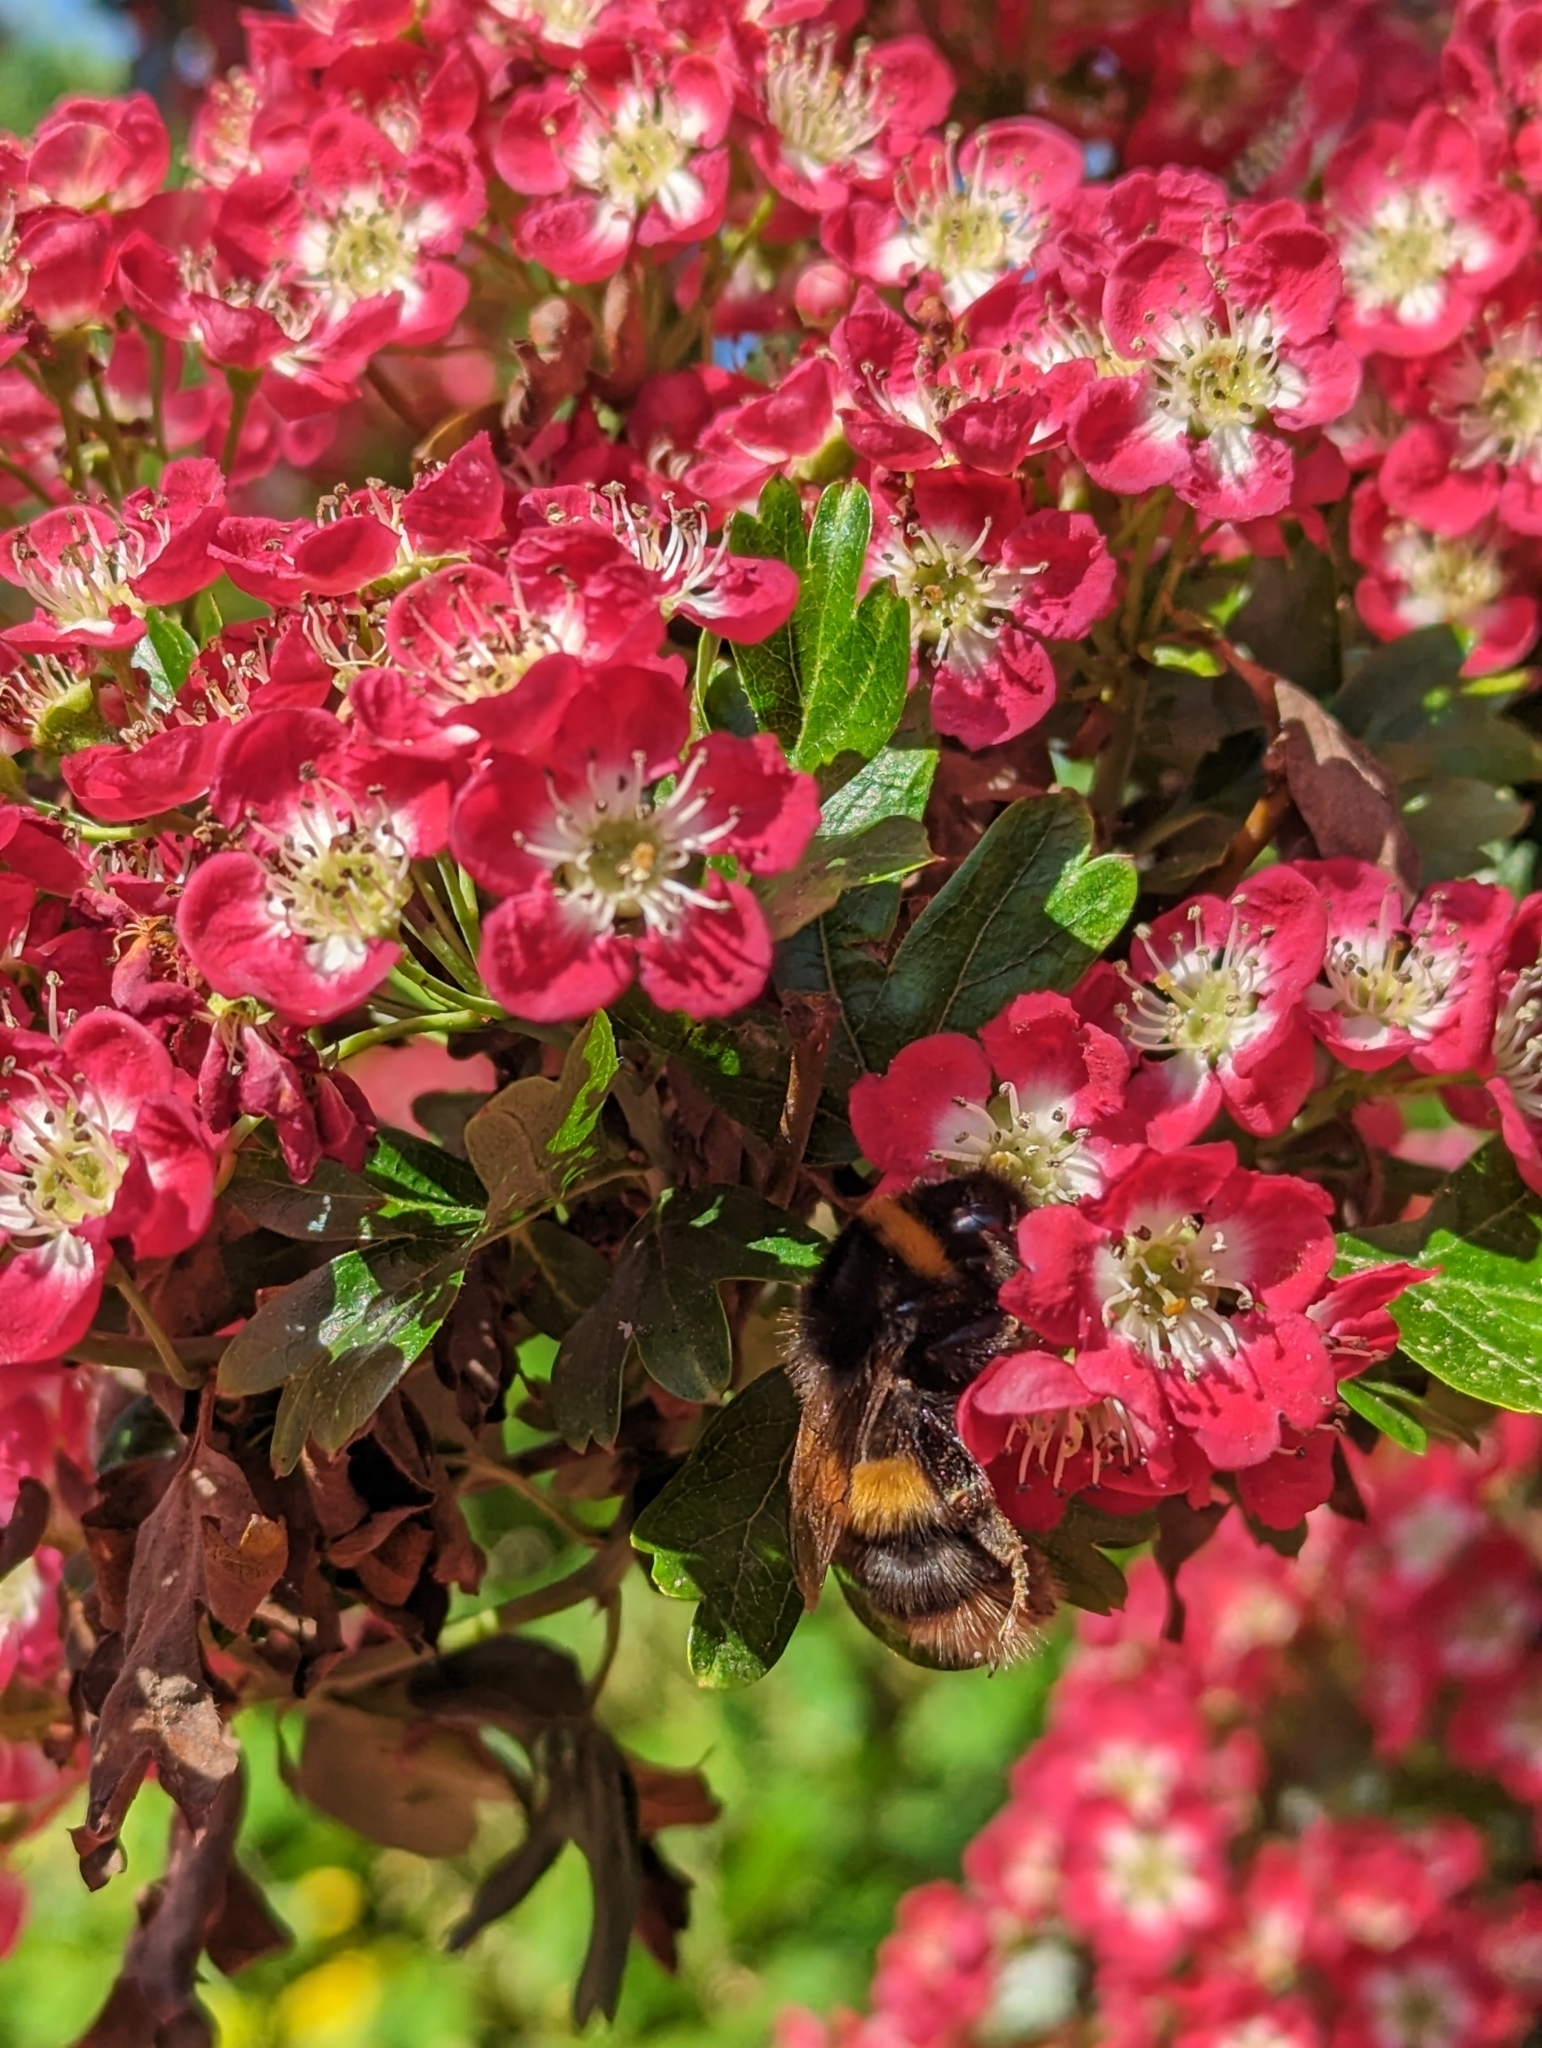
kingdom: Animalia
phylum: Arthropoda
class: Insecta
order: Hymenoptera
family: Apidae
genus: Bombus
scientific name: Bombus terrestris
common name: Buff-tailed bumblebee
